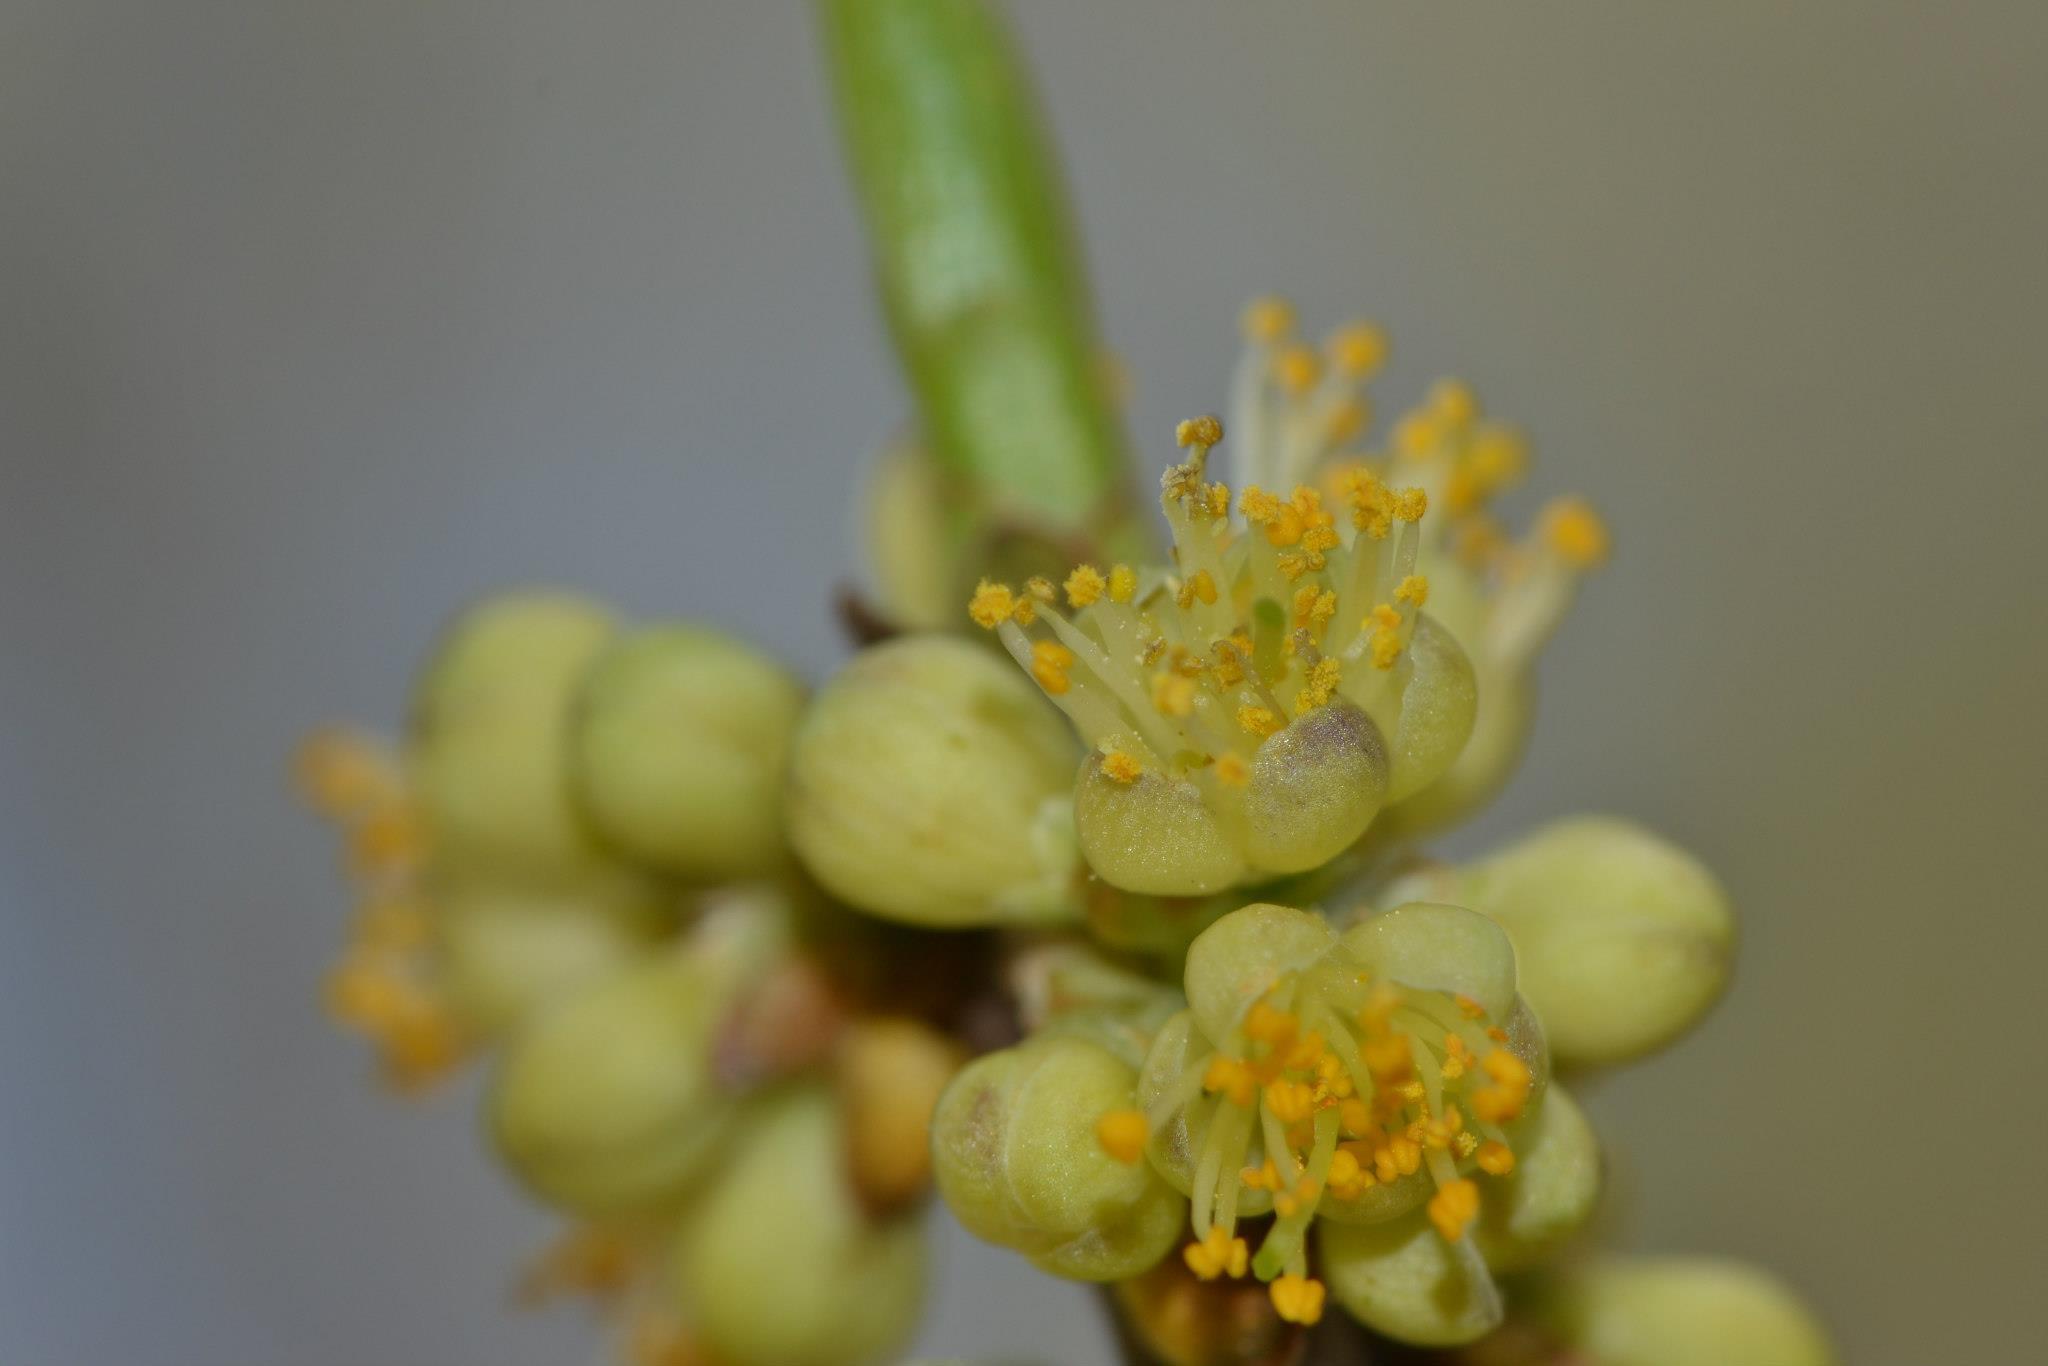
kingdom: Plantae
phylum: Tracheophyta
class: Magnoliopsida
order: Ericales
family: Symplocaceae
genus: Symplocos
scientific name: Symplocos tinctoria
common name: Horse-sugar
